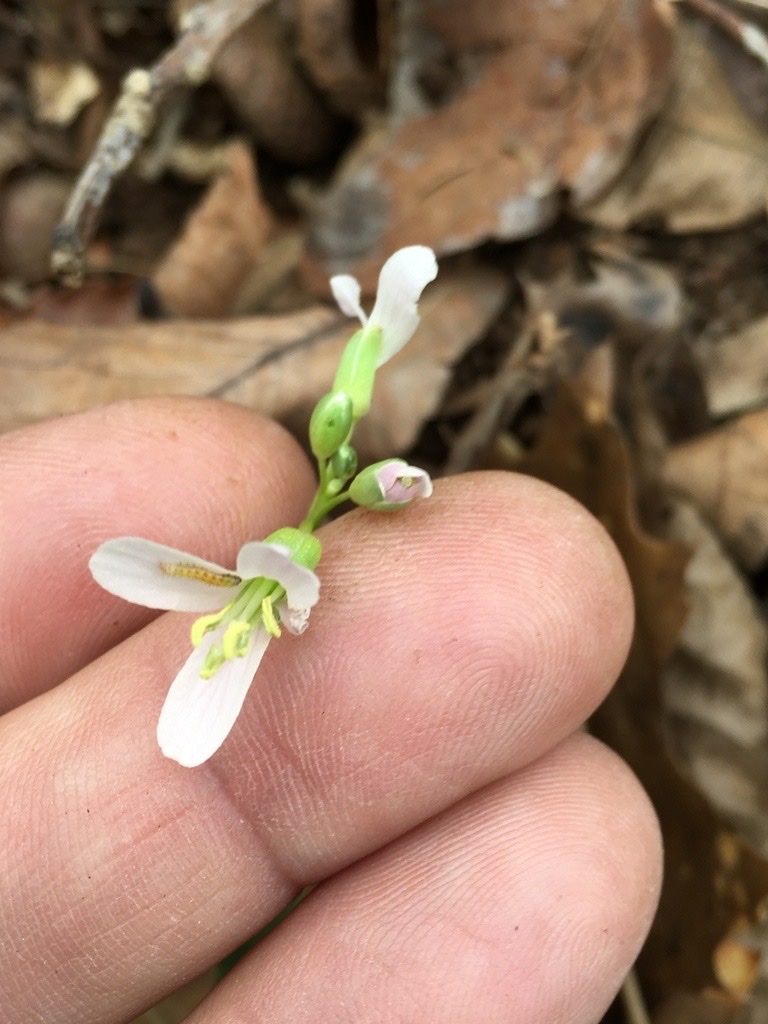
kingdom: Animalia
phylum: Arthropoda
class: Insecta
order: Lepidoptera
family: Pieridae
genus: Anthocharis
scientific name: Anthocharis midea
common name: Falcate orangetip
